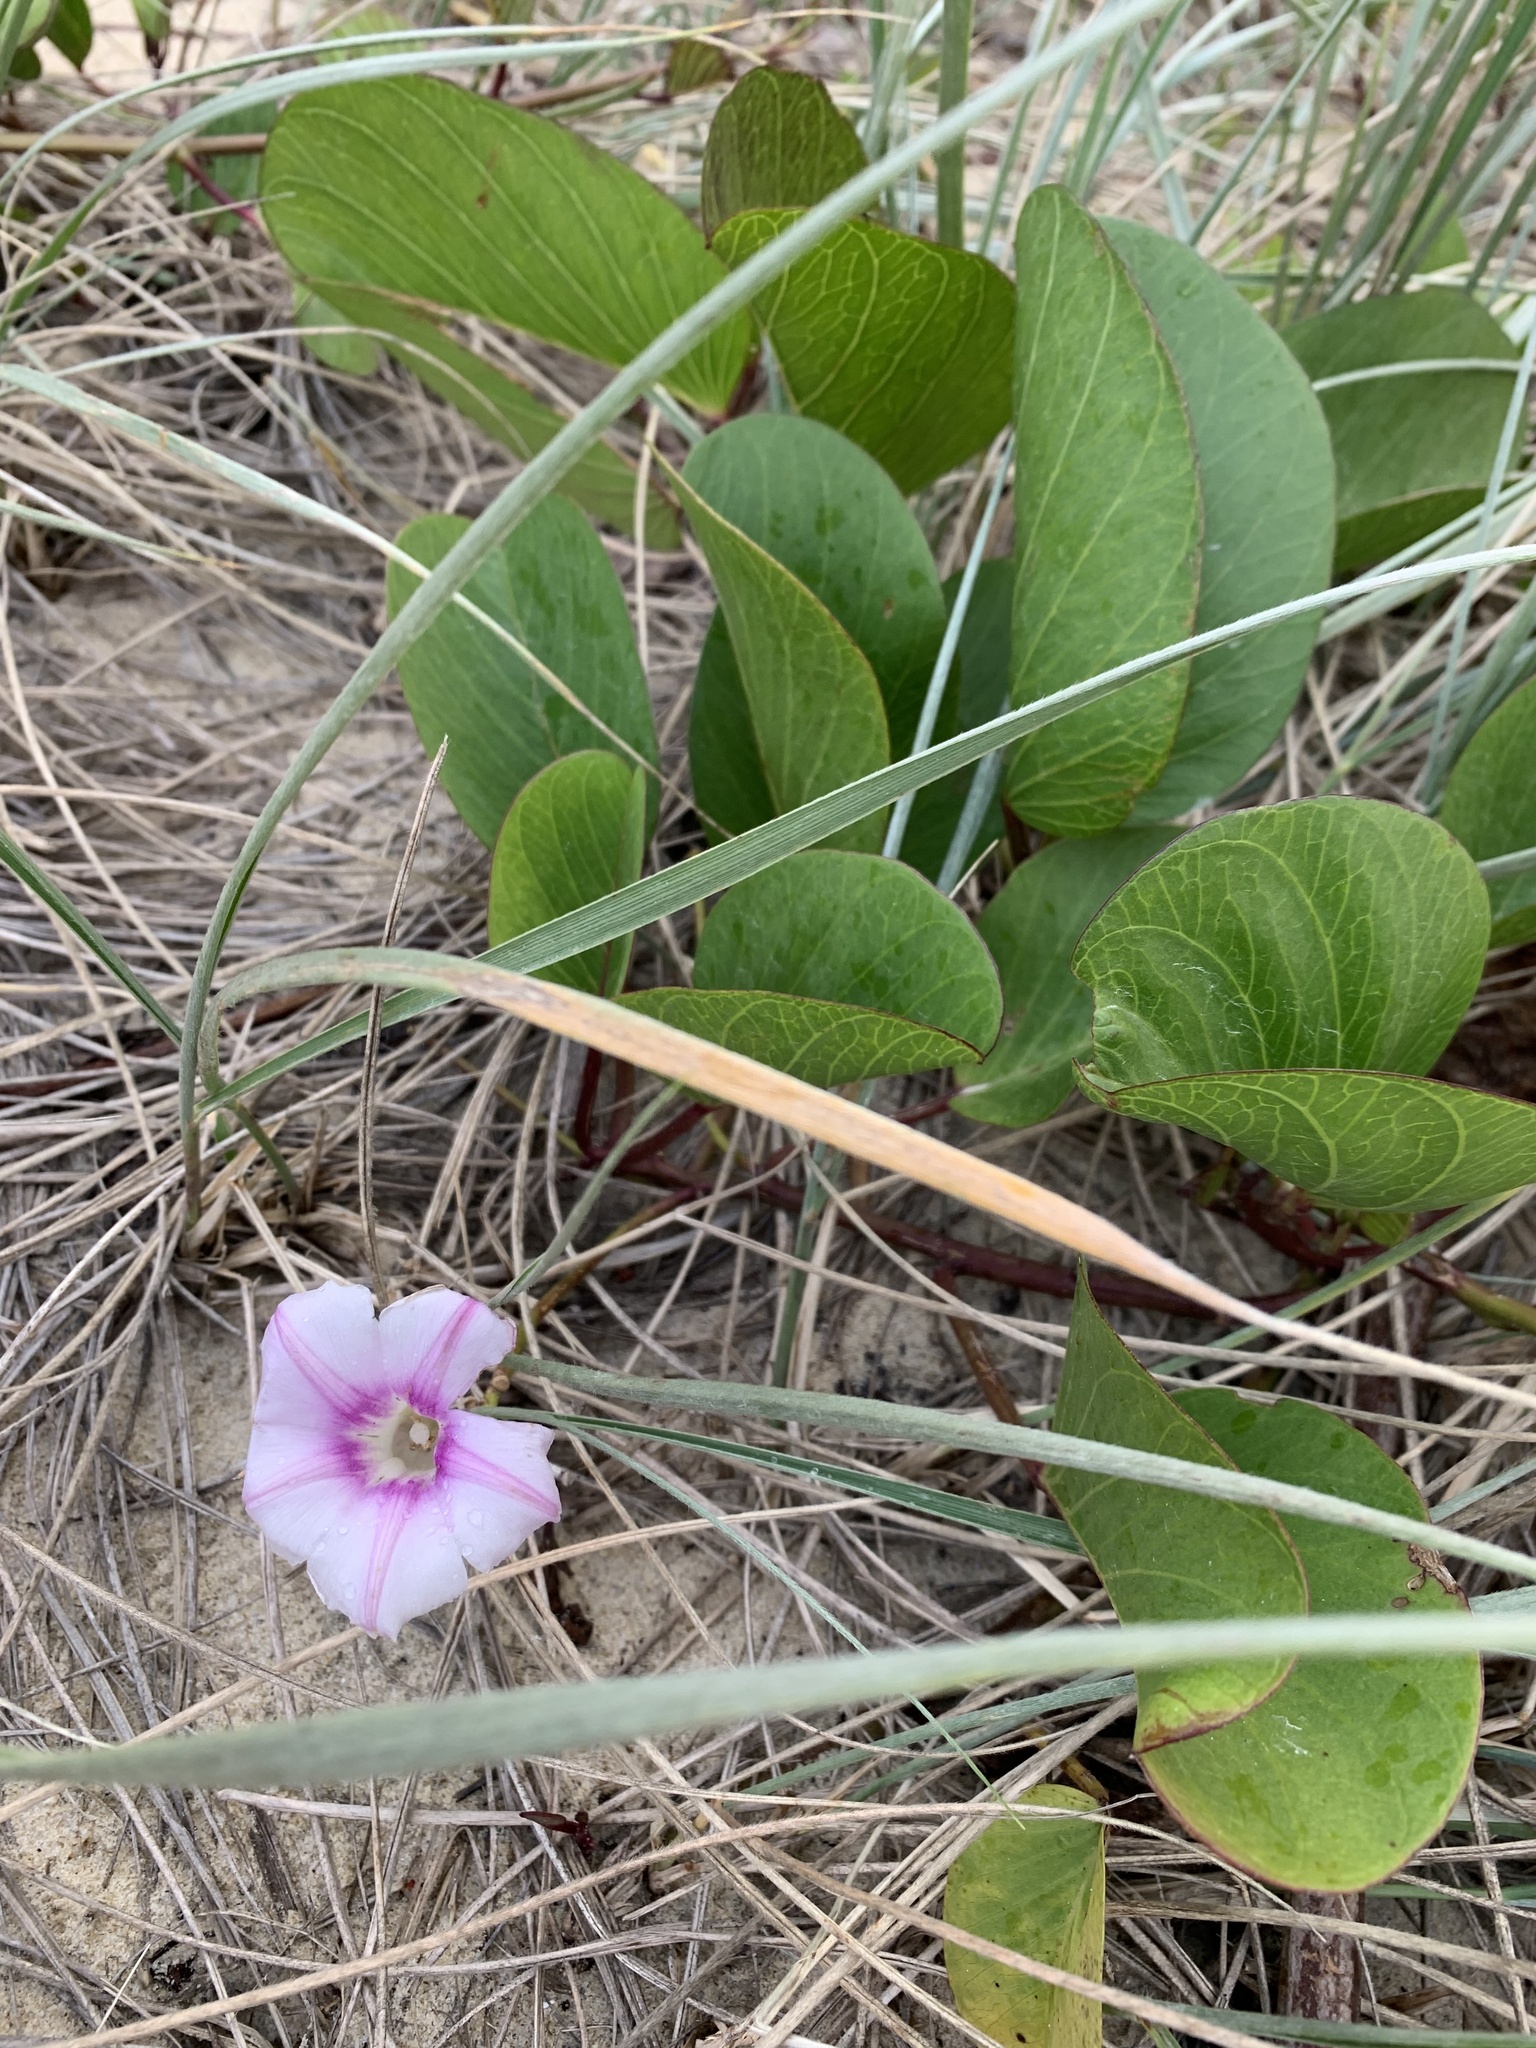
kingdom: Plantae
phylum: Tracheophyta
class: Magnoliopsida
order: Solanales
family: Convolvulaceae
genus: Ipomoea
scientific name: Ipomoea pes-caprae
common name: Beach morning glory
